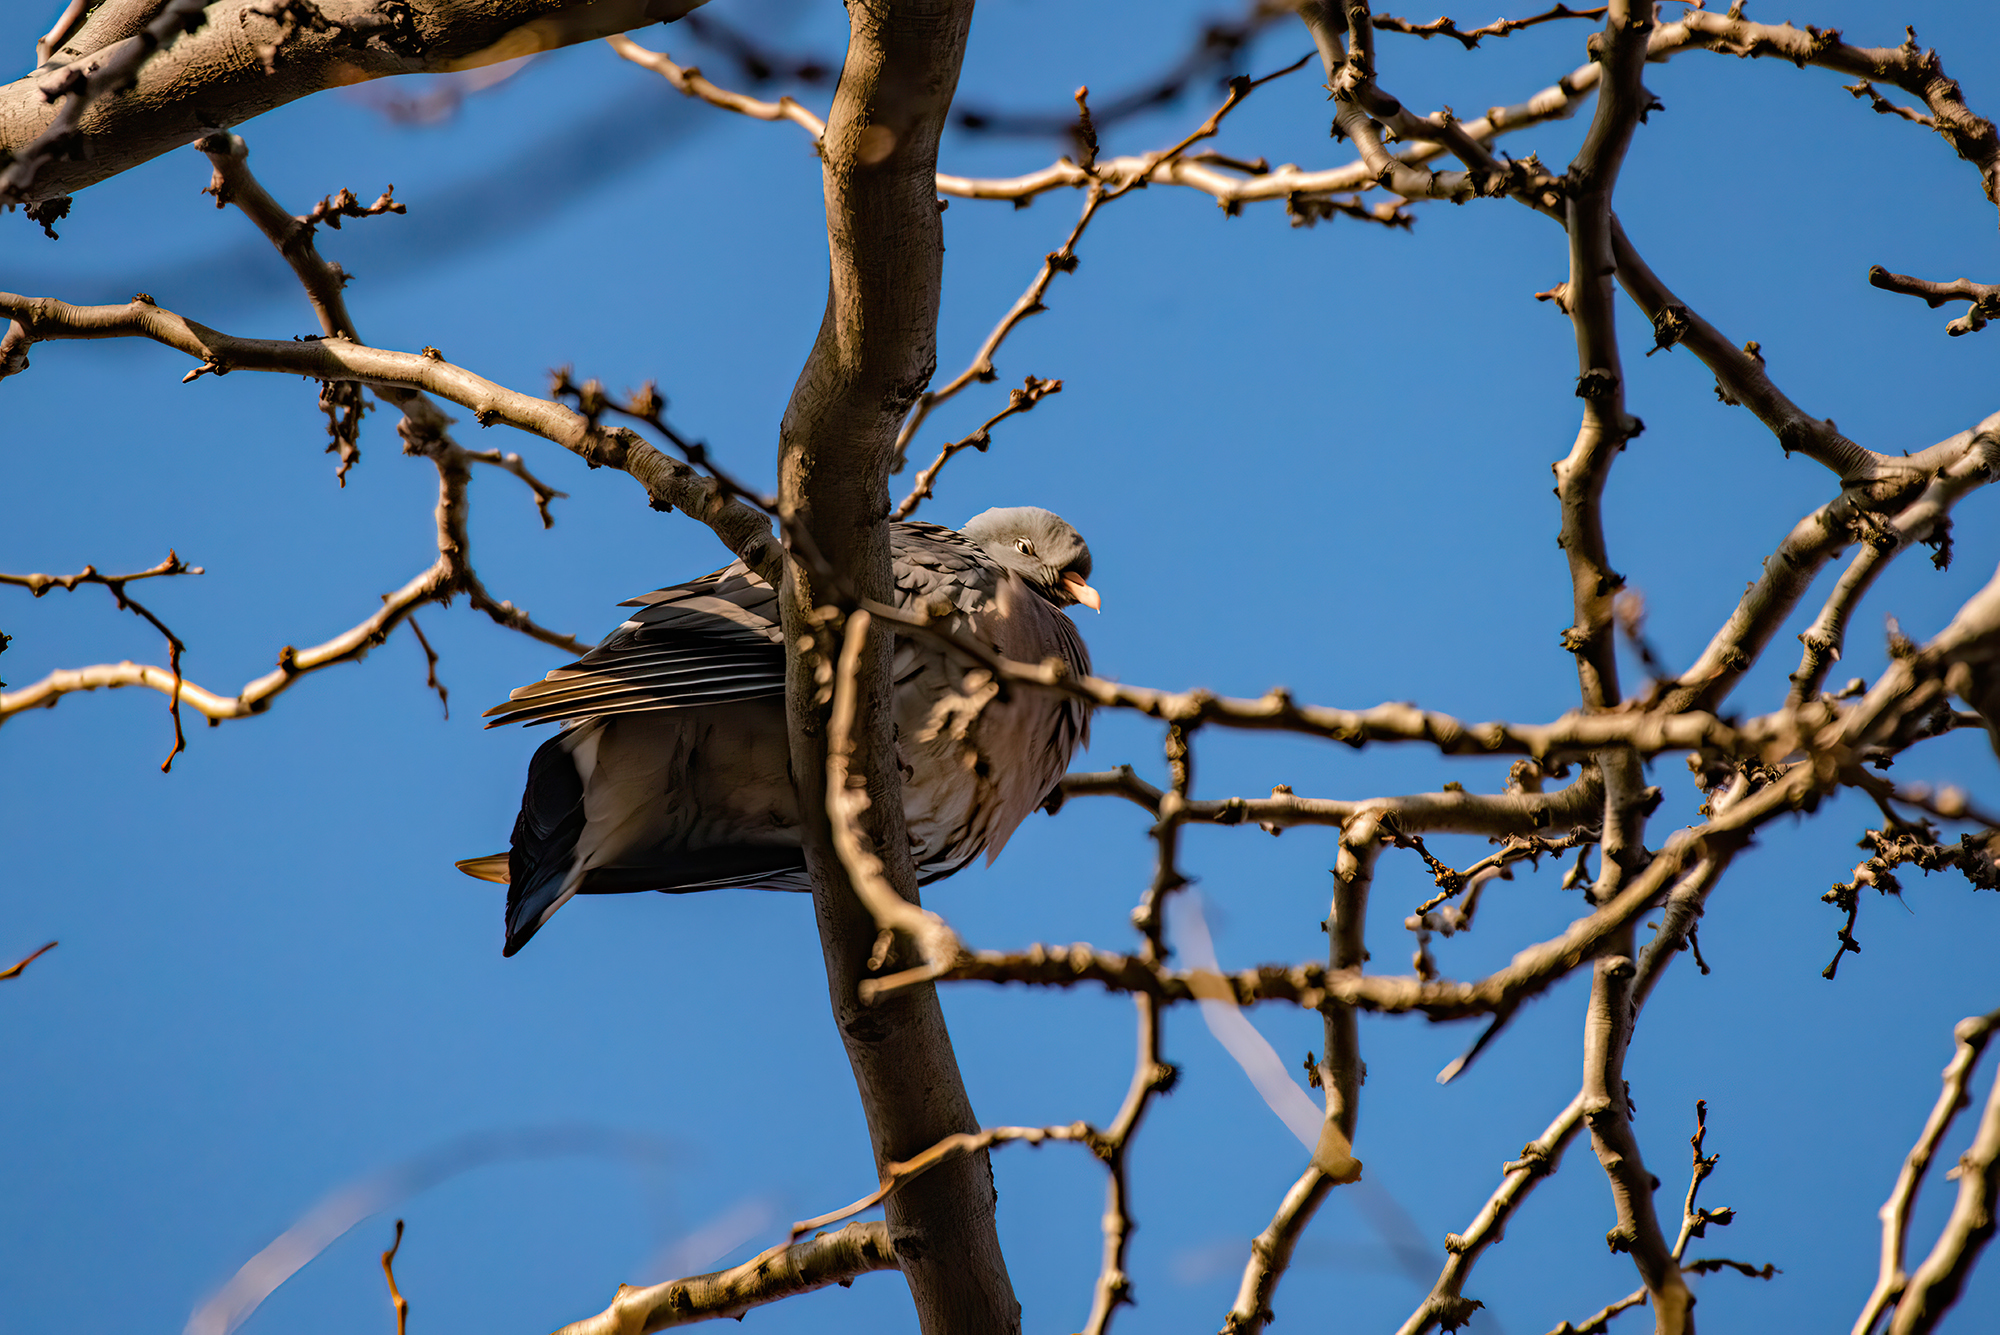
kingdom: Animalia
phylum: Chordata
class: Aves
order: Columbiformes
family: Columbidae
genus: Columba
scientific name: Columba palumbus
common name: Common wood pigeon
